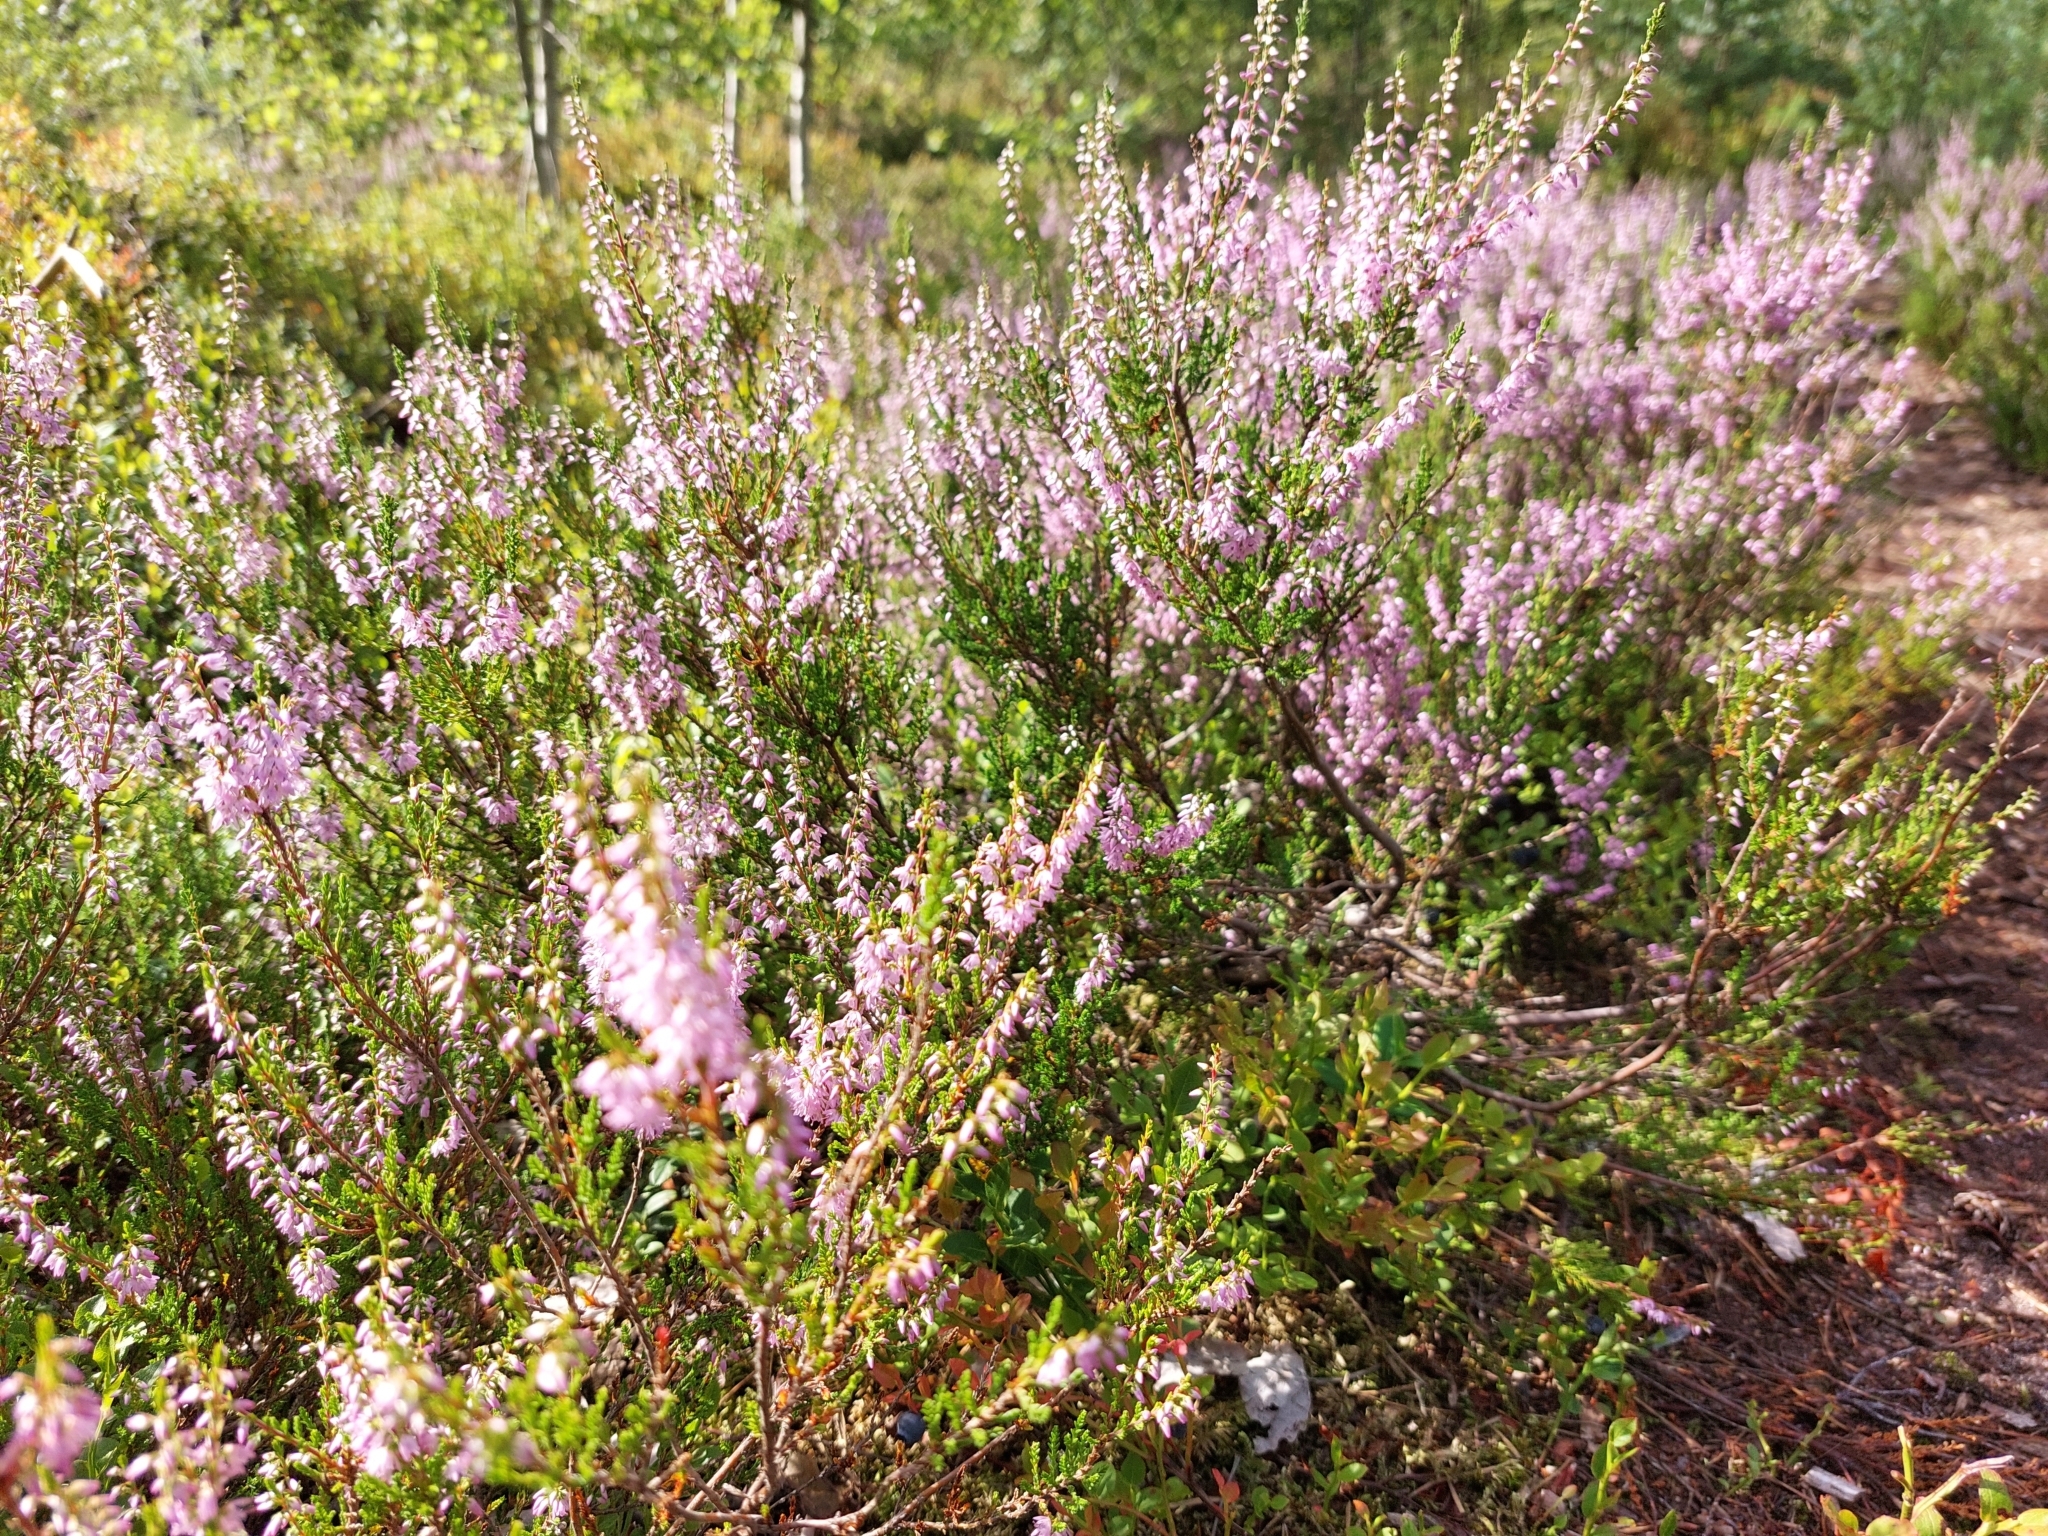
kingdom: Plantae
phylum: Tracheophyta
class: Magnoliopsida
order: Ericales
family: Ericaceae
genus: Calluna
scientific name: Calluna vulgaris
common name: Heather
